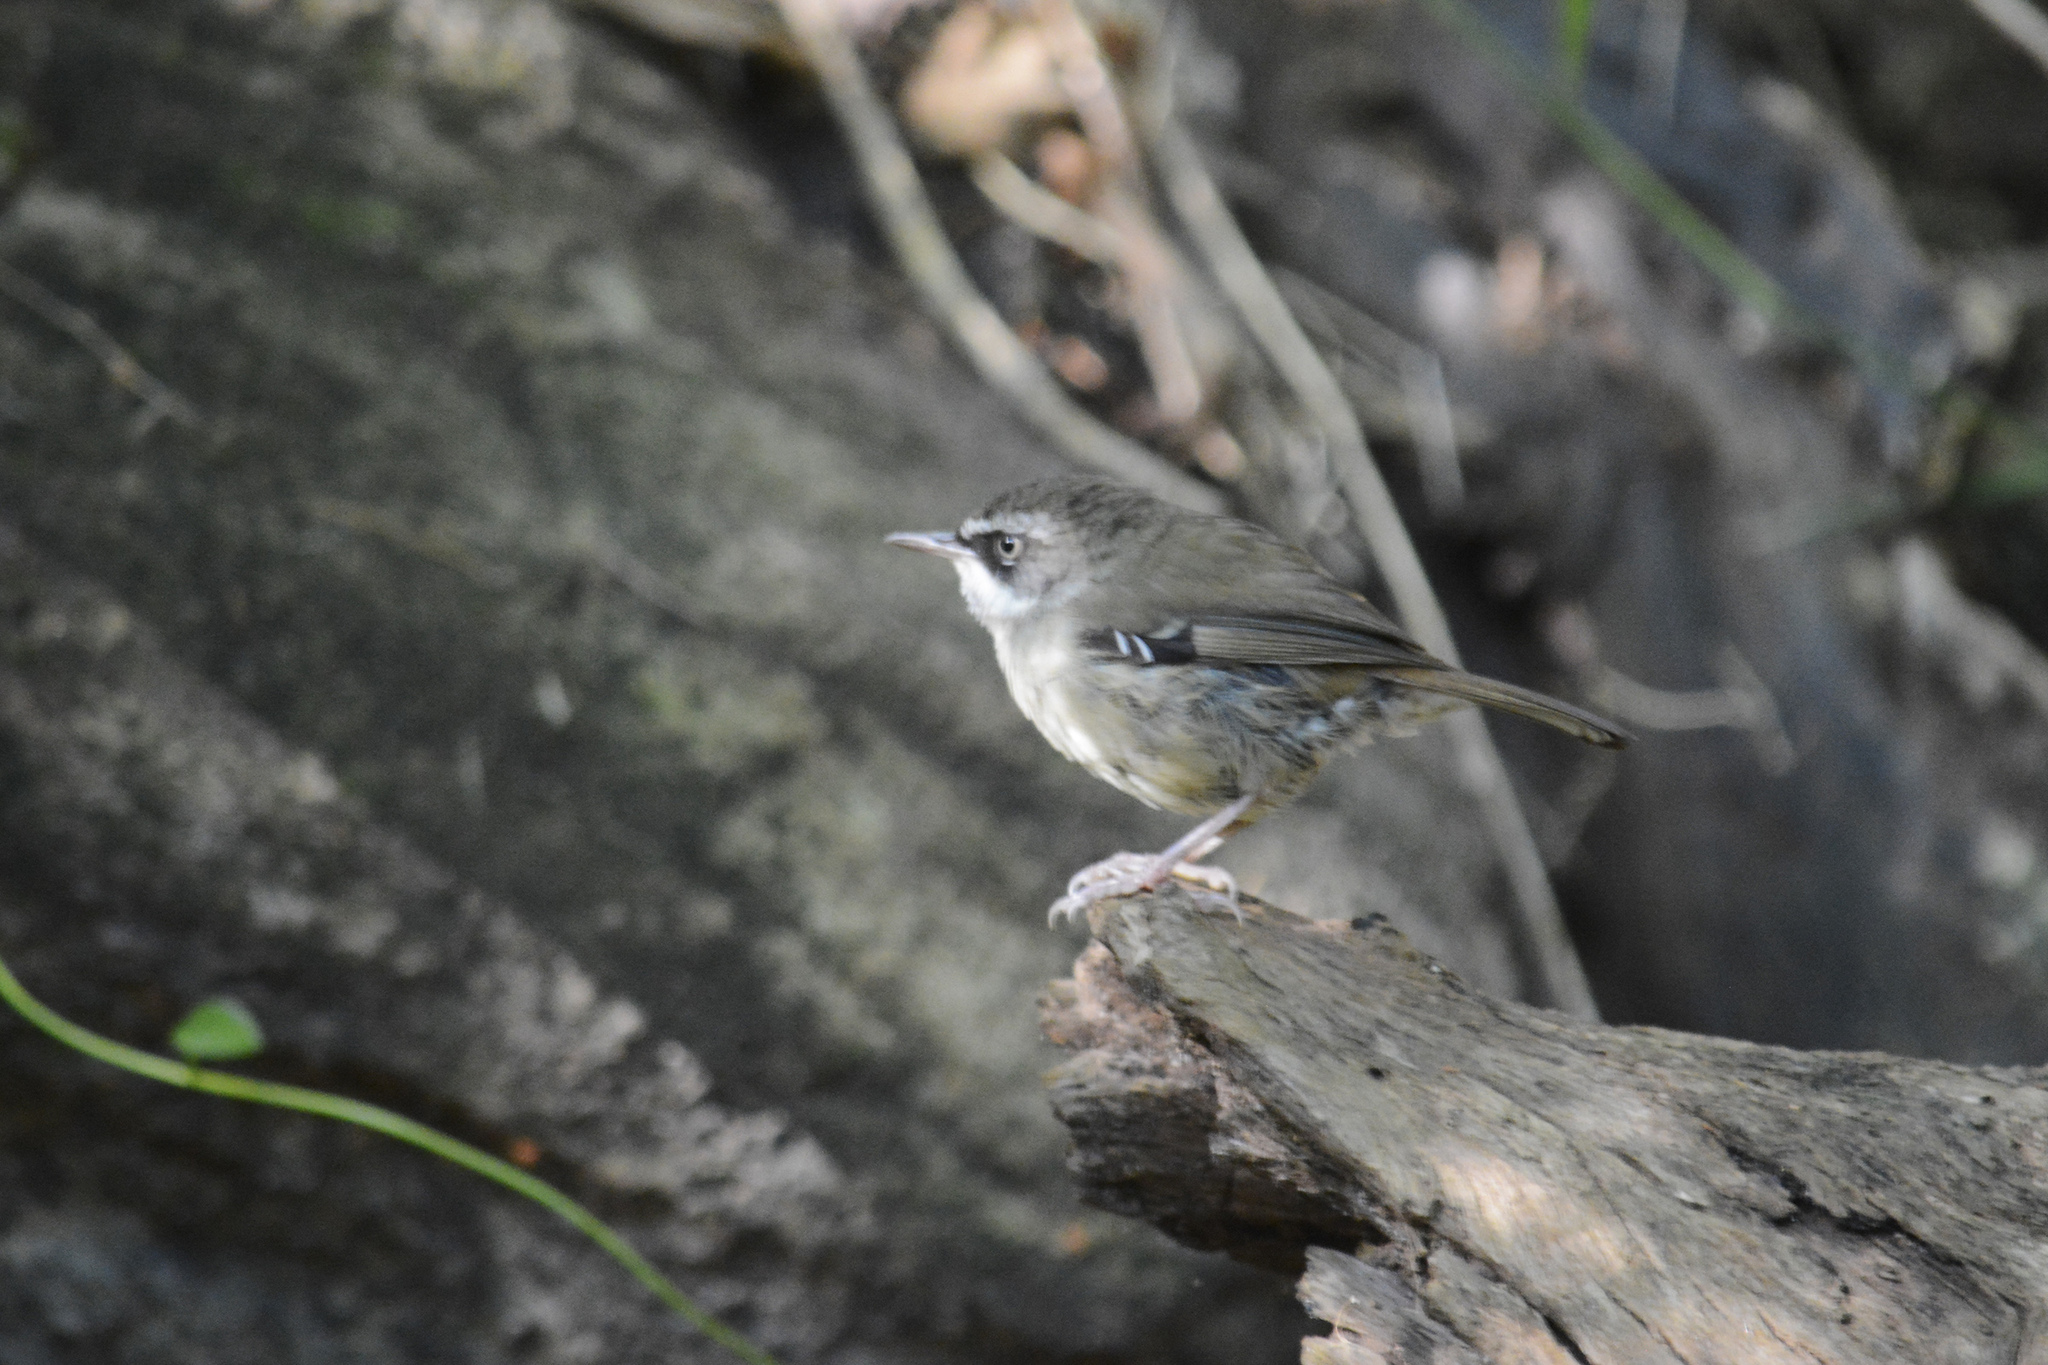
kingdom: Animalia
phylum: Chordata
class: Aves
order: Passeriformes
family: Acanthizidae
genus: Sericornis
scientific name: Sericornis frontalis
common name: White-browed scrubwren
